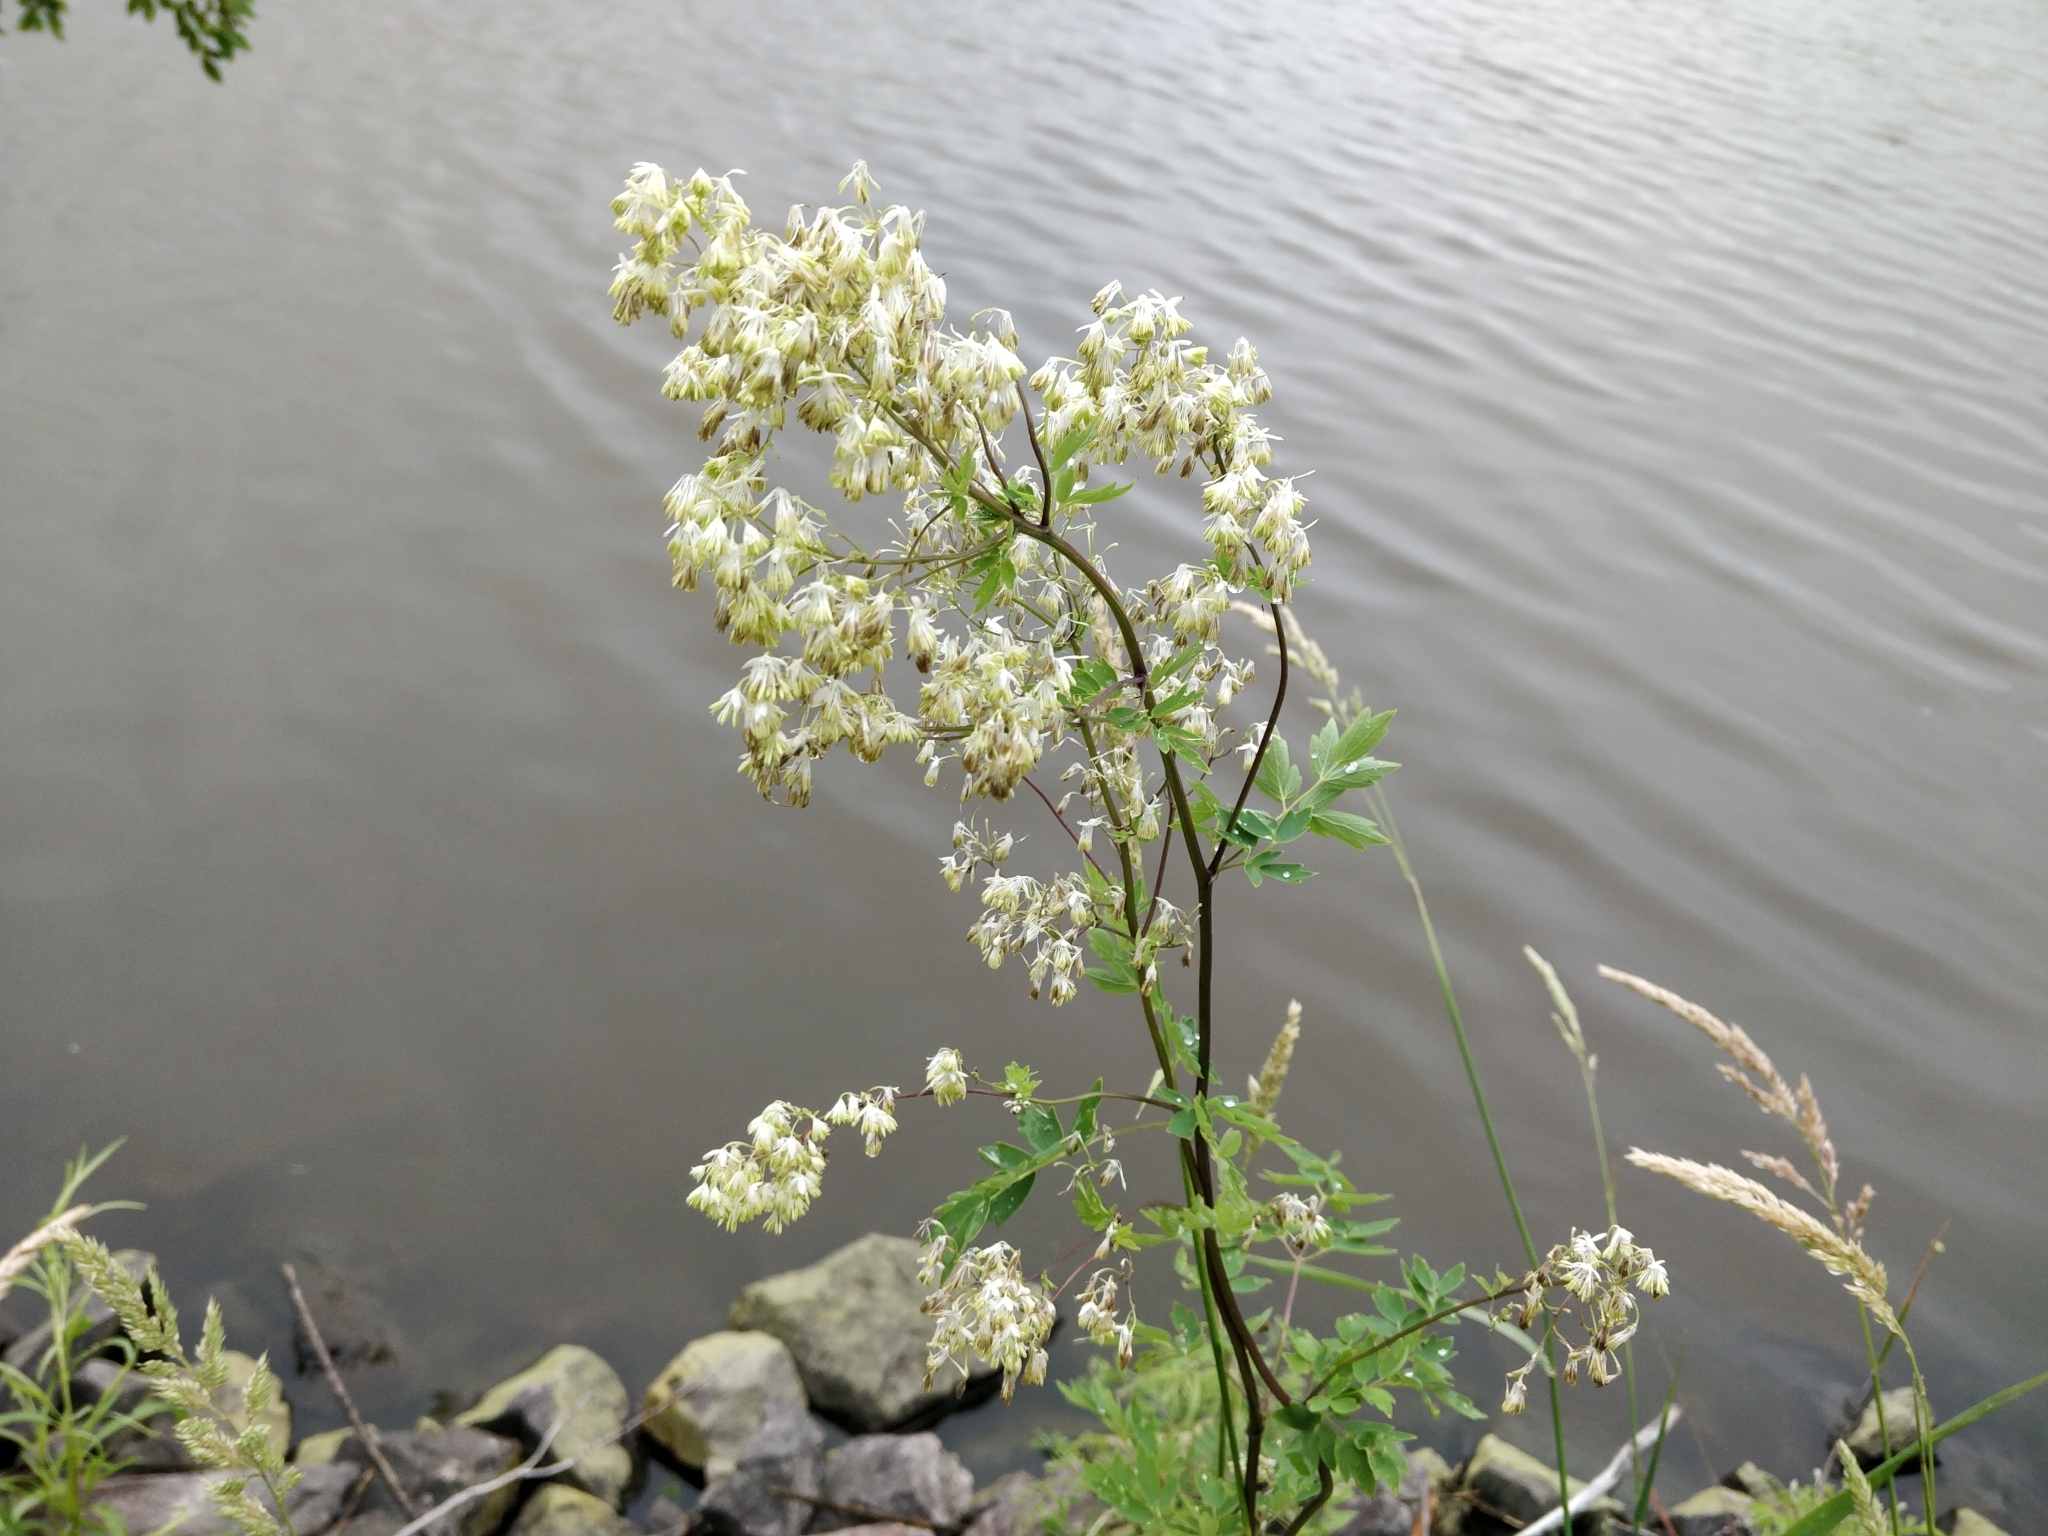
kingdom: Plantae
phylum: Tracheophyta
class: Magnoliopsida
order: Ranunculales
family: Ranunculaceae
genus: Thalictrum
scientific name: Thalictrum dasycarpum
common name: Purple meadow-rue
